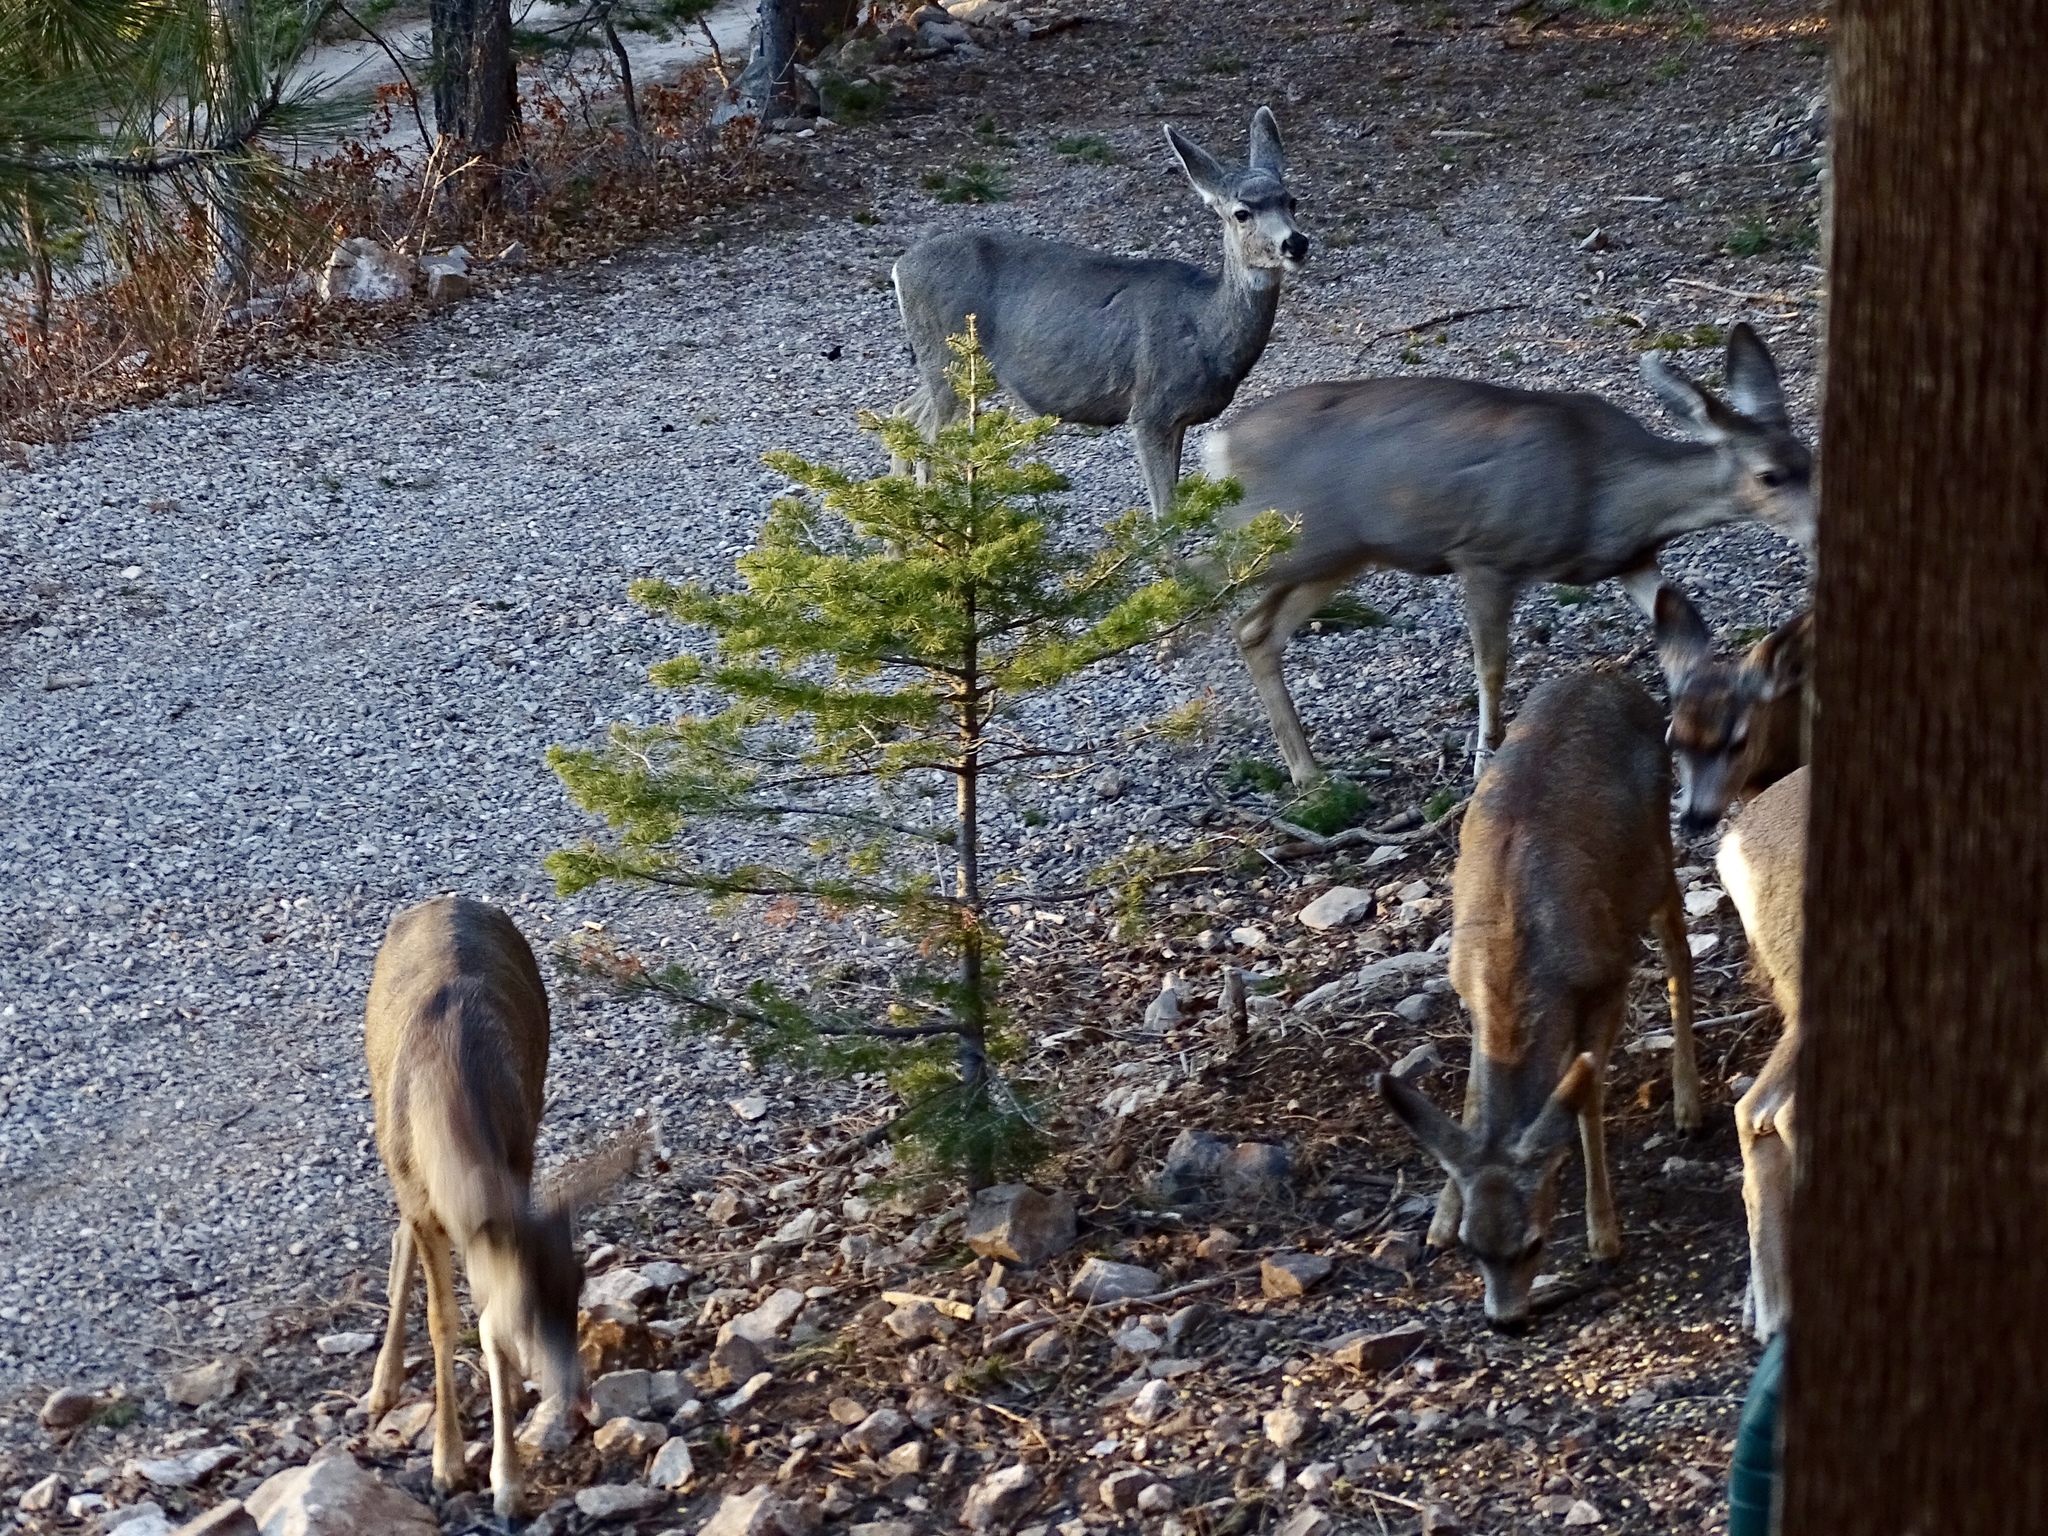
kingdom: Animalia
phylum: Chordata
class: Mammalia
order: Artiodactyla
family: Cervidae
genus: Odocoileus
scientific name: Odocoileus hemionus
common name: Mule deer
